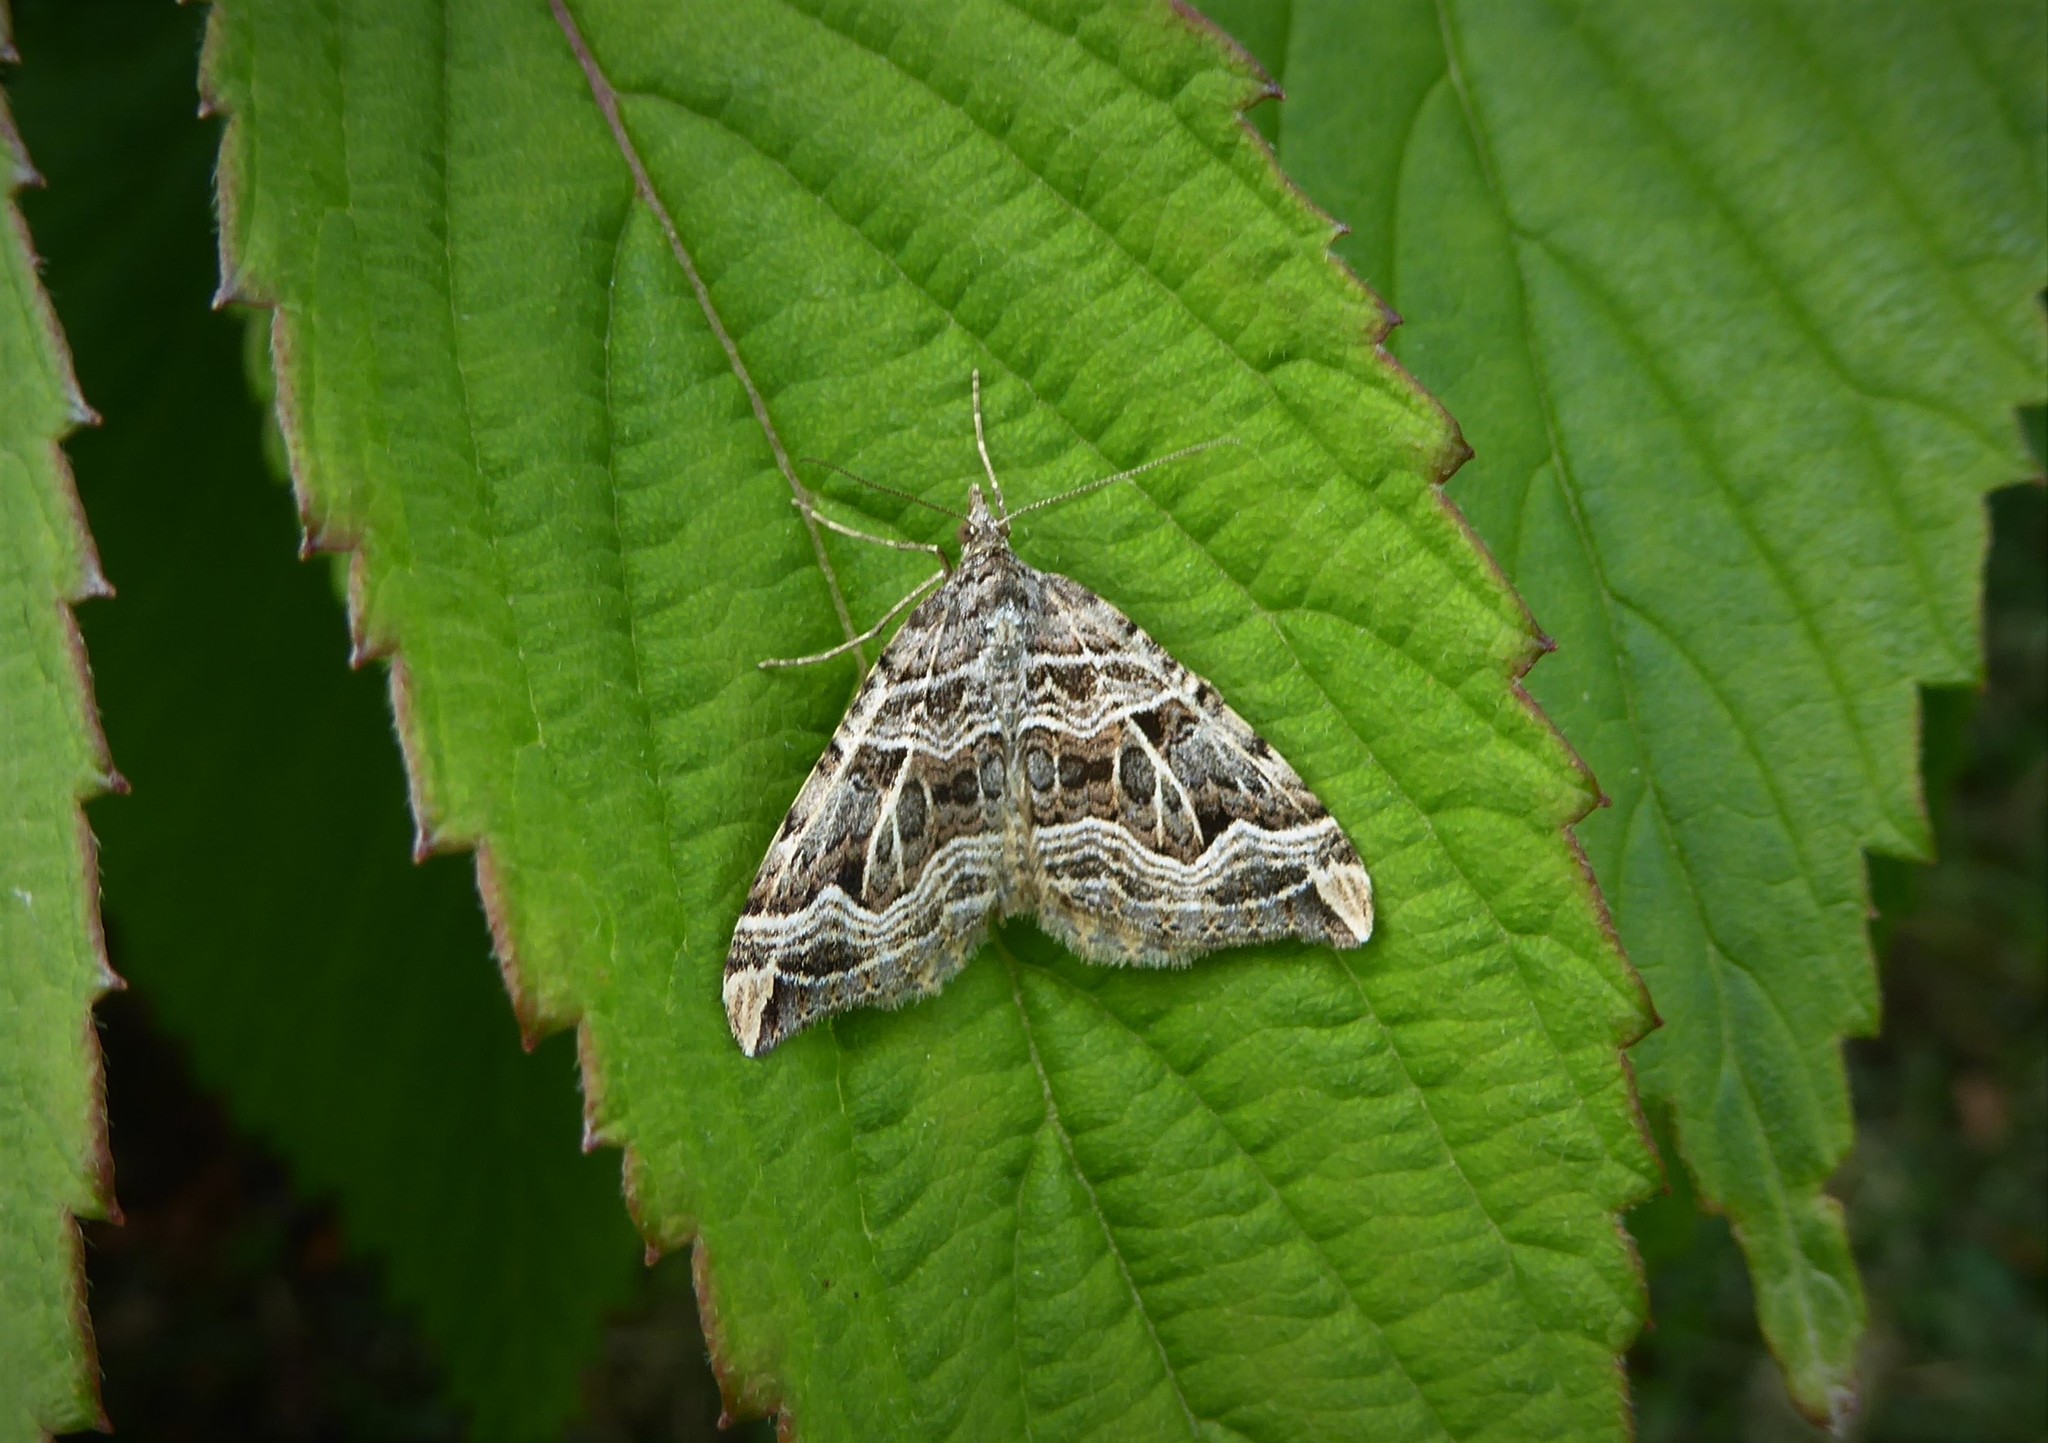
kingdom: Animalia
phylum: Arthropoda
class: Insecta
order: Lepidoptera
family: Geometridae
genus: Xanthorhoe
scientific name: Xanthorhoe semifissata
